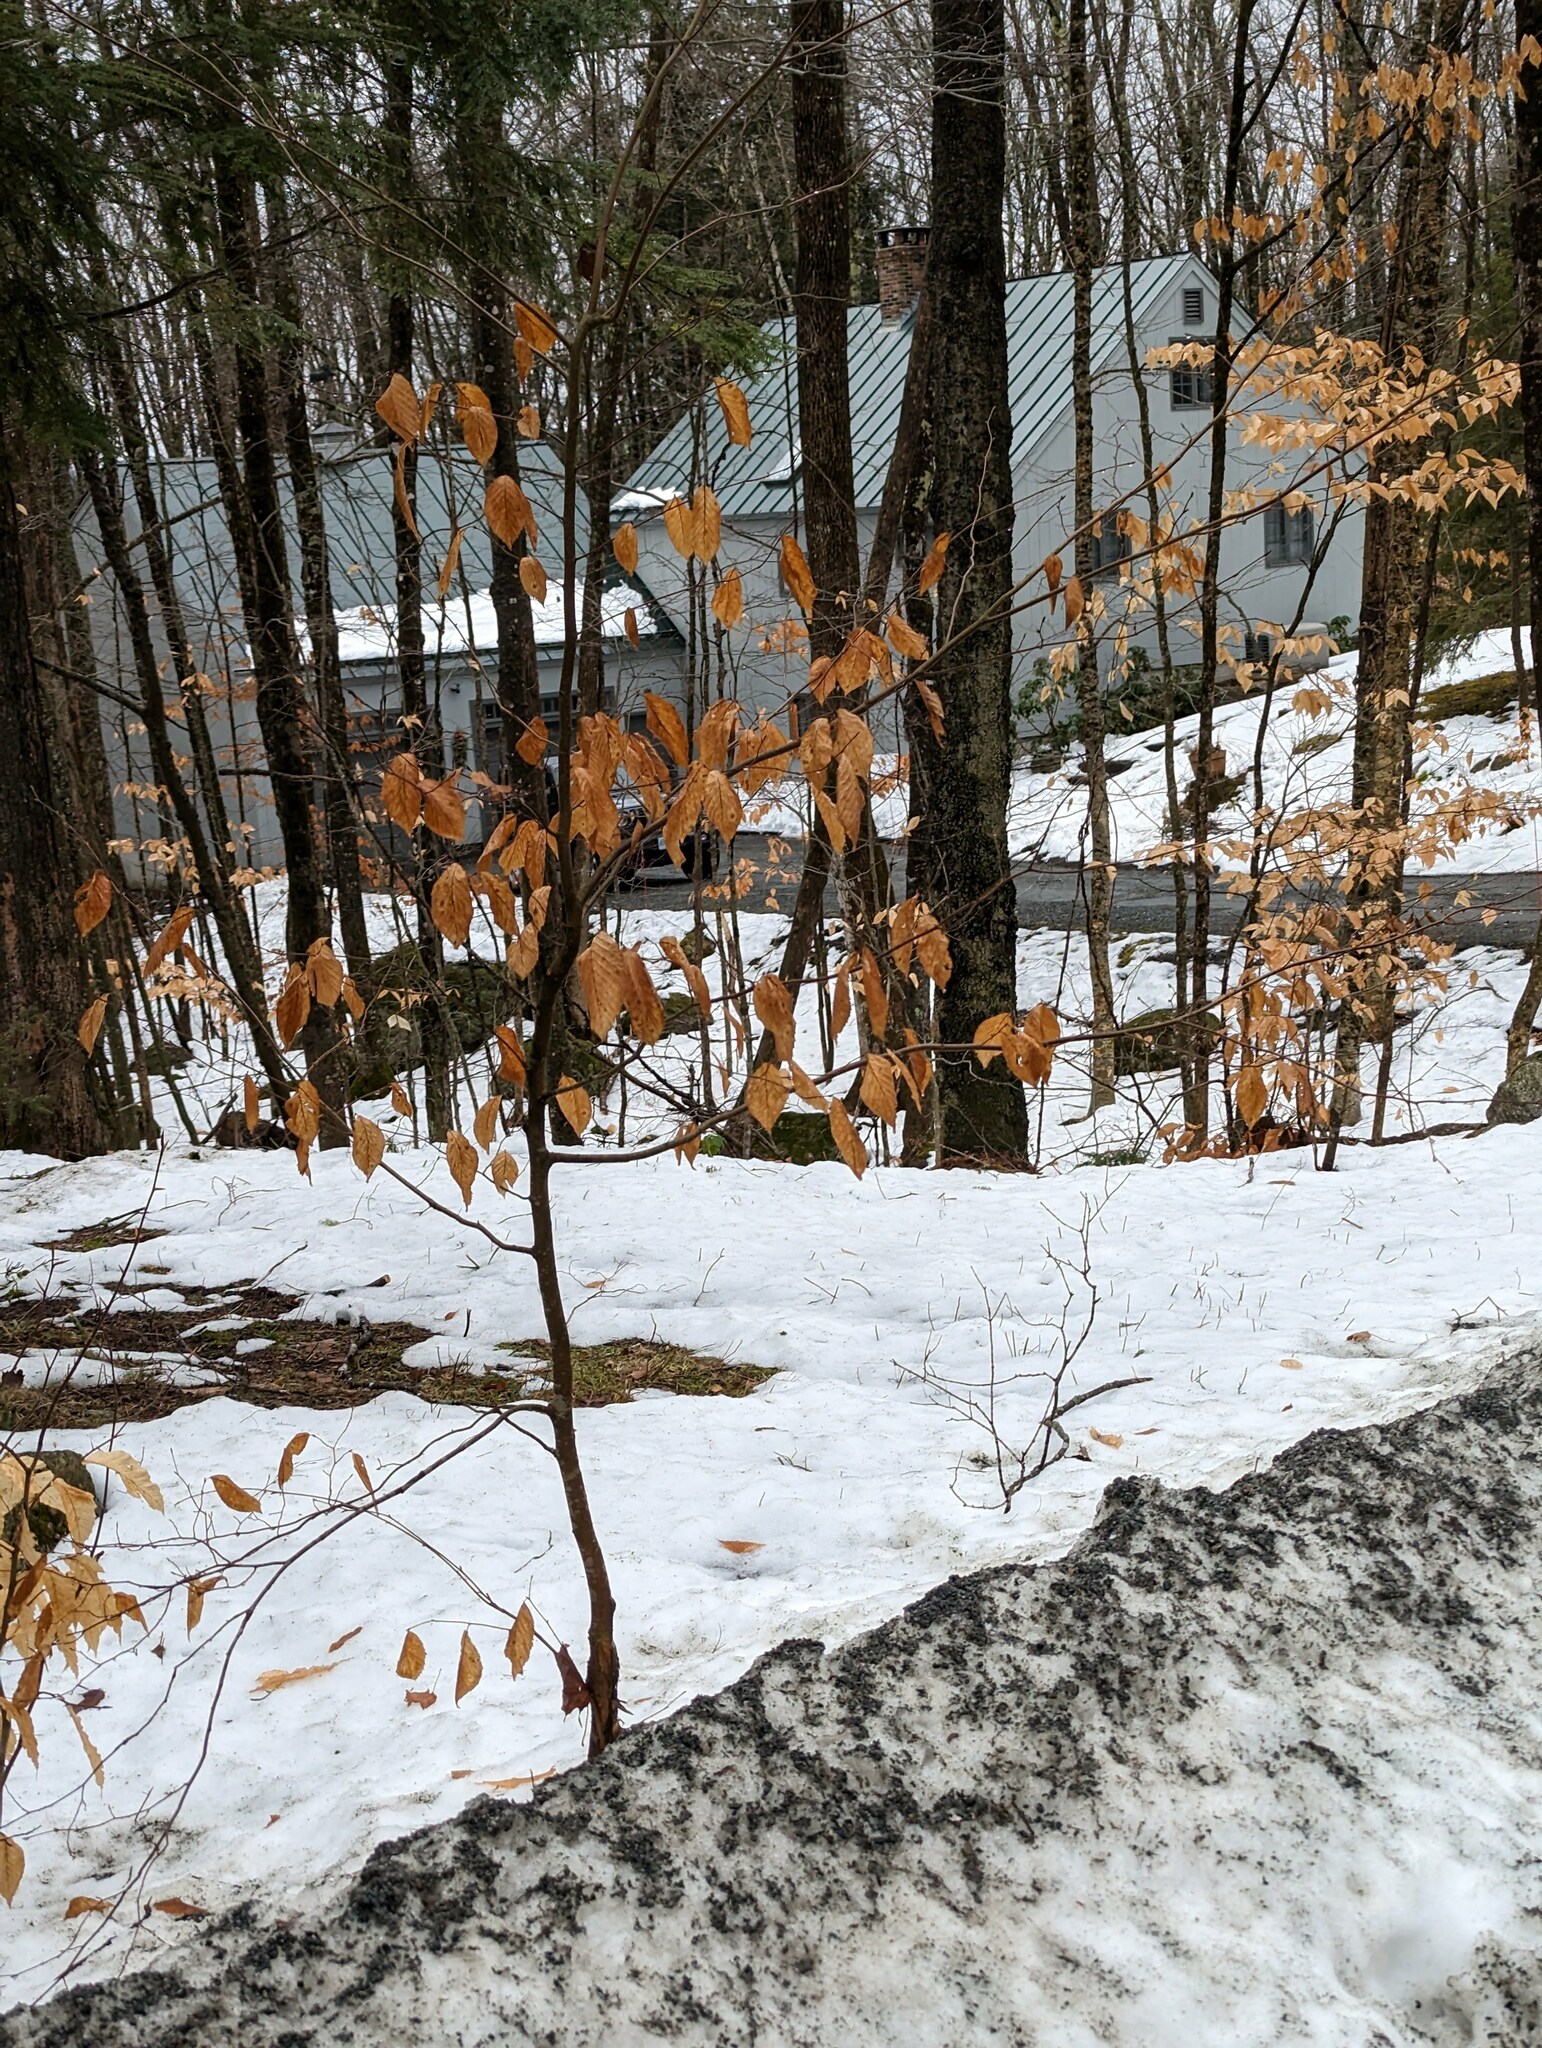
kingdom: Plantae
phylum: Tracheophyta
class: Magnoliopsida
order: Fagales
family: Fagaceae
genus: Fagus
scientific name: Fagus grandifolia
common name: American beech
